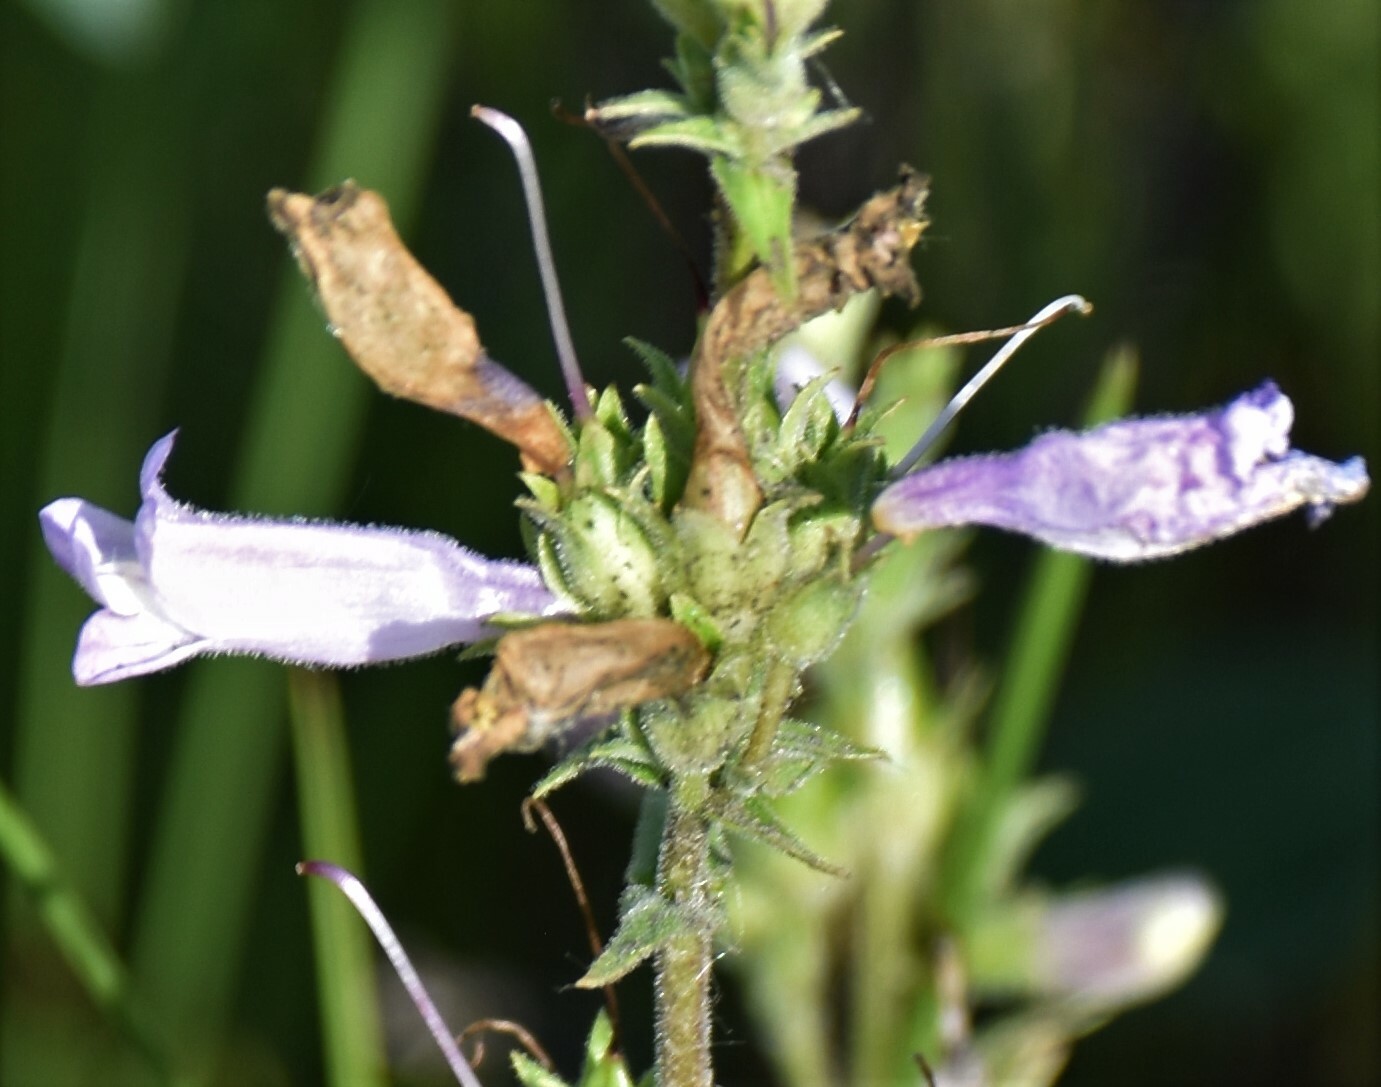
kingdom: Plantae
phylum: Tracheophyta
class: Magnoliopsida
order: Lamiales
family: Plantaginaceae
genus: Penstemon
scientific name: Penstemon gracilis
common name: Slender beardtongue
